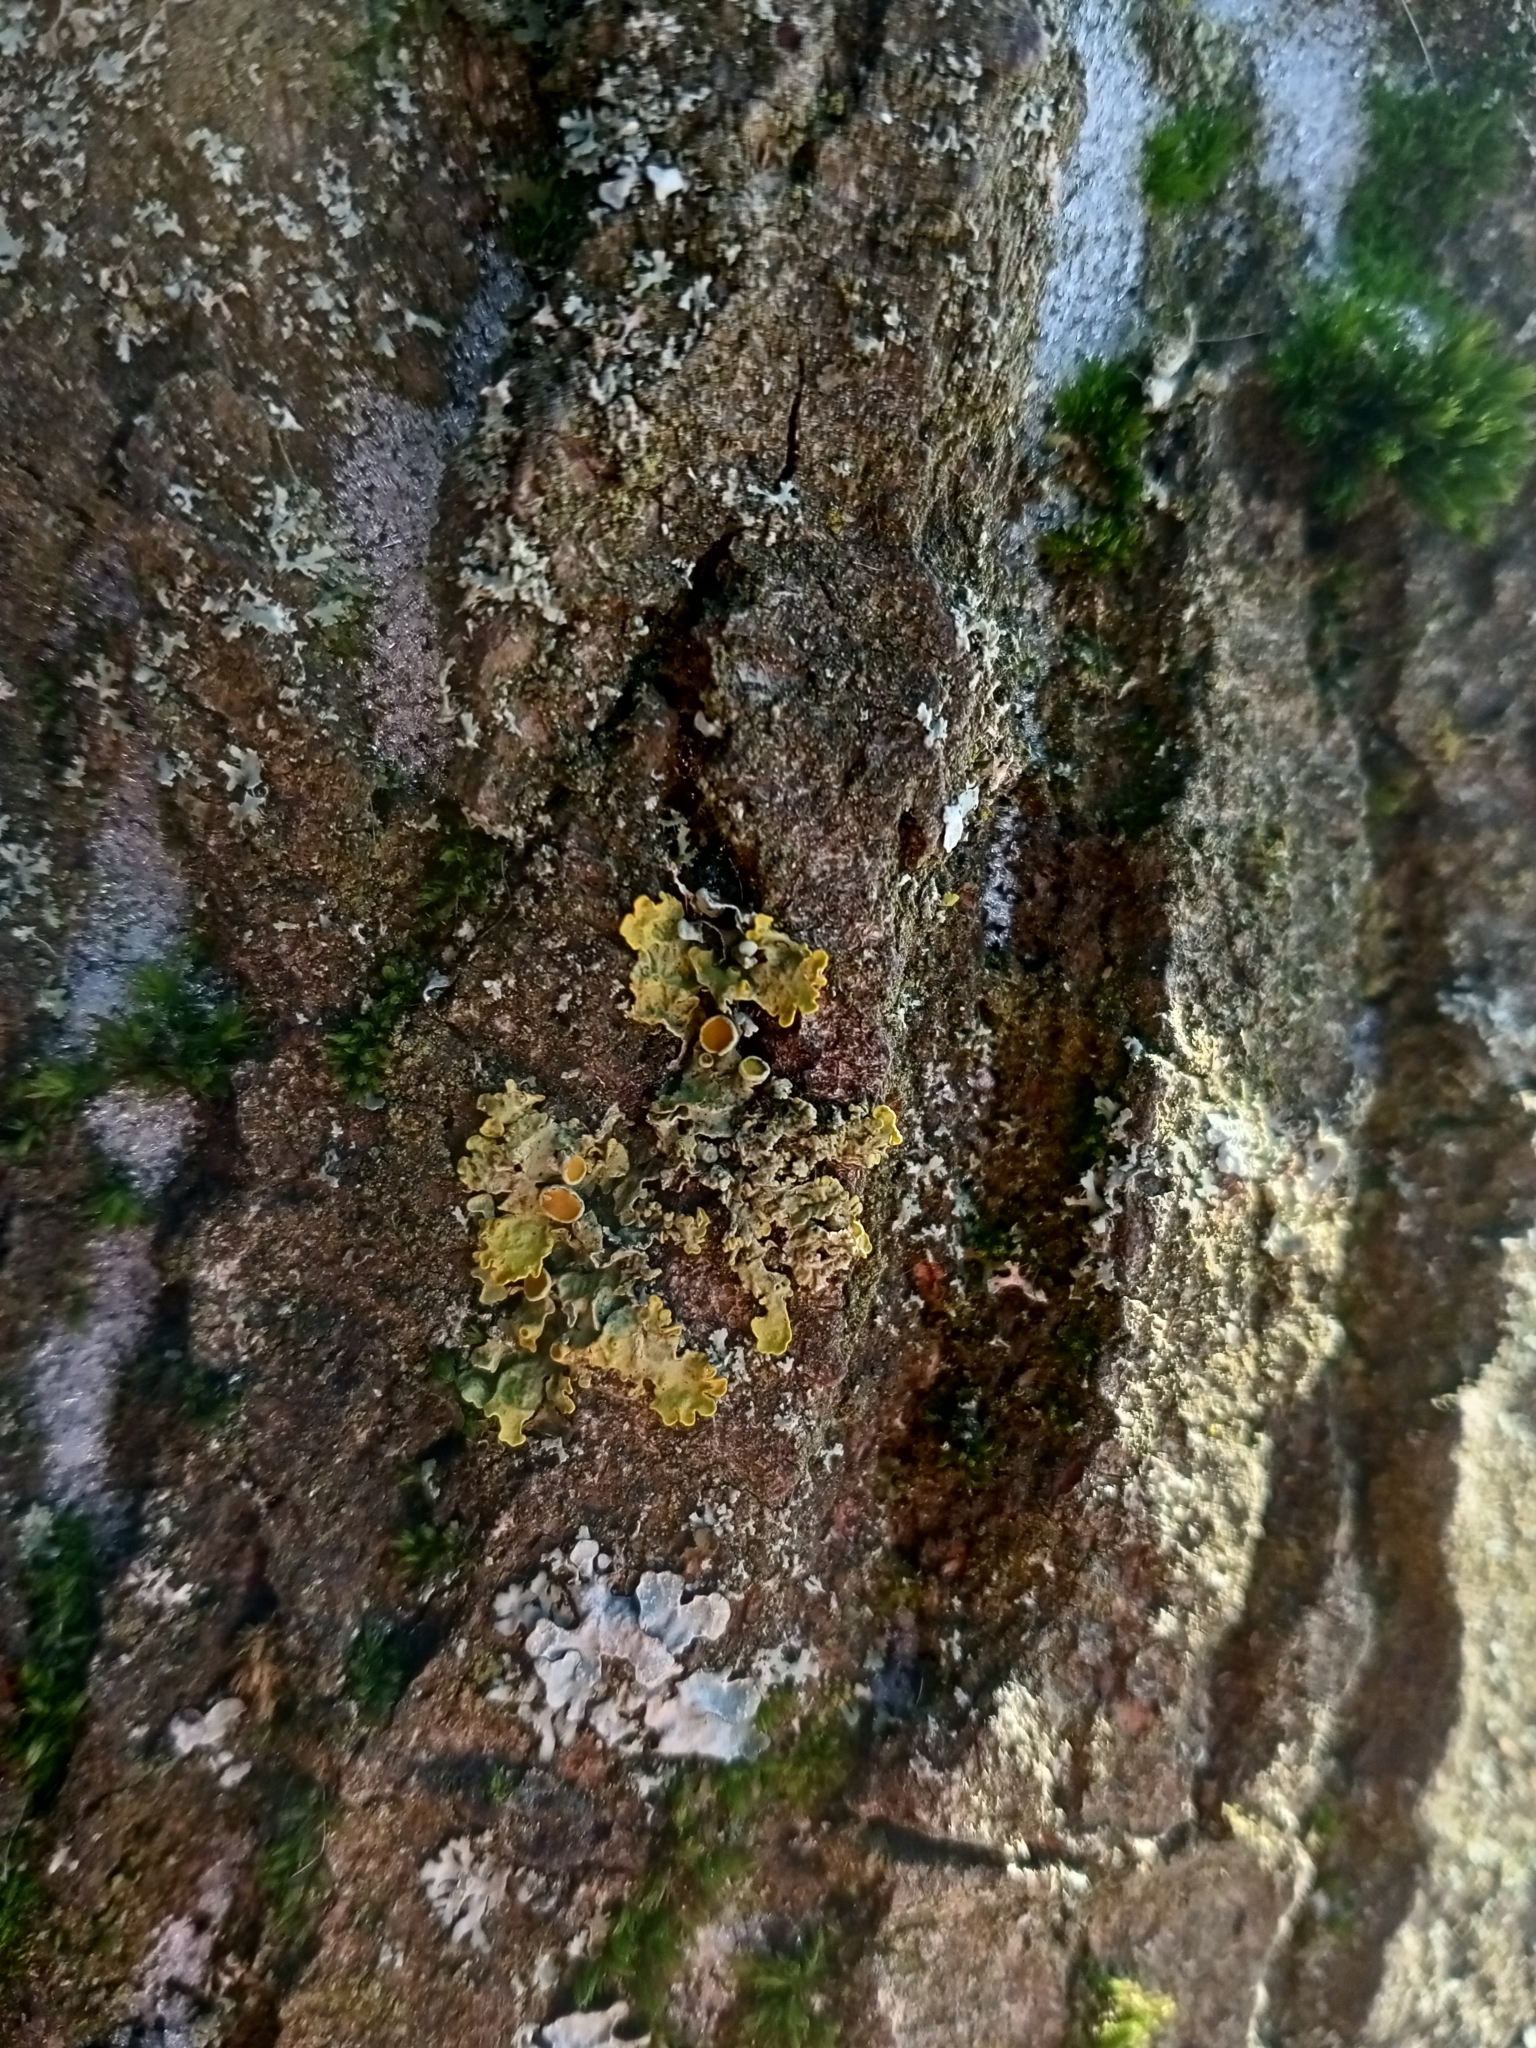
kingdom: Fungi
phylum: Ascomycota
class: Lecanoromycetes
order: Teloschistales
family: Teloschistaceae
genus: Xanthoria
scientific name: Xanthoria parietina
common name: Common orange lichen
